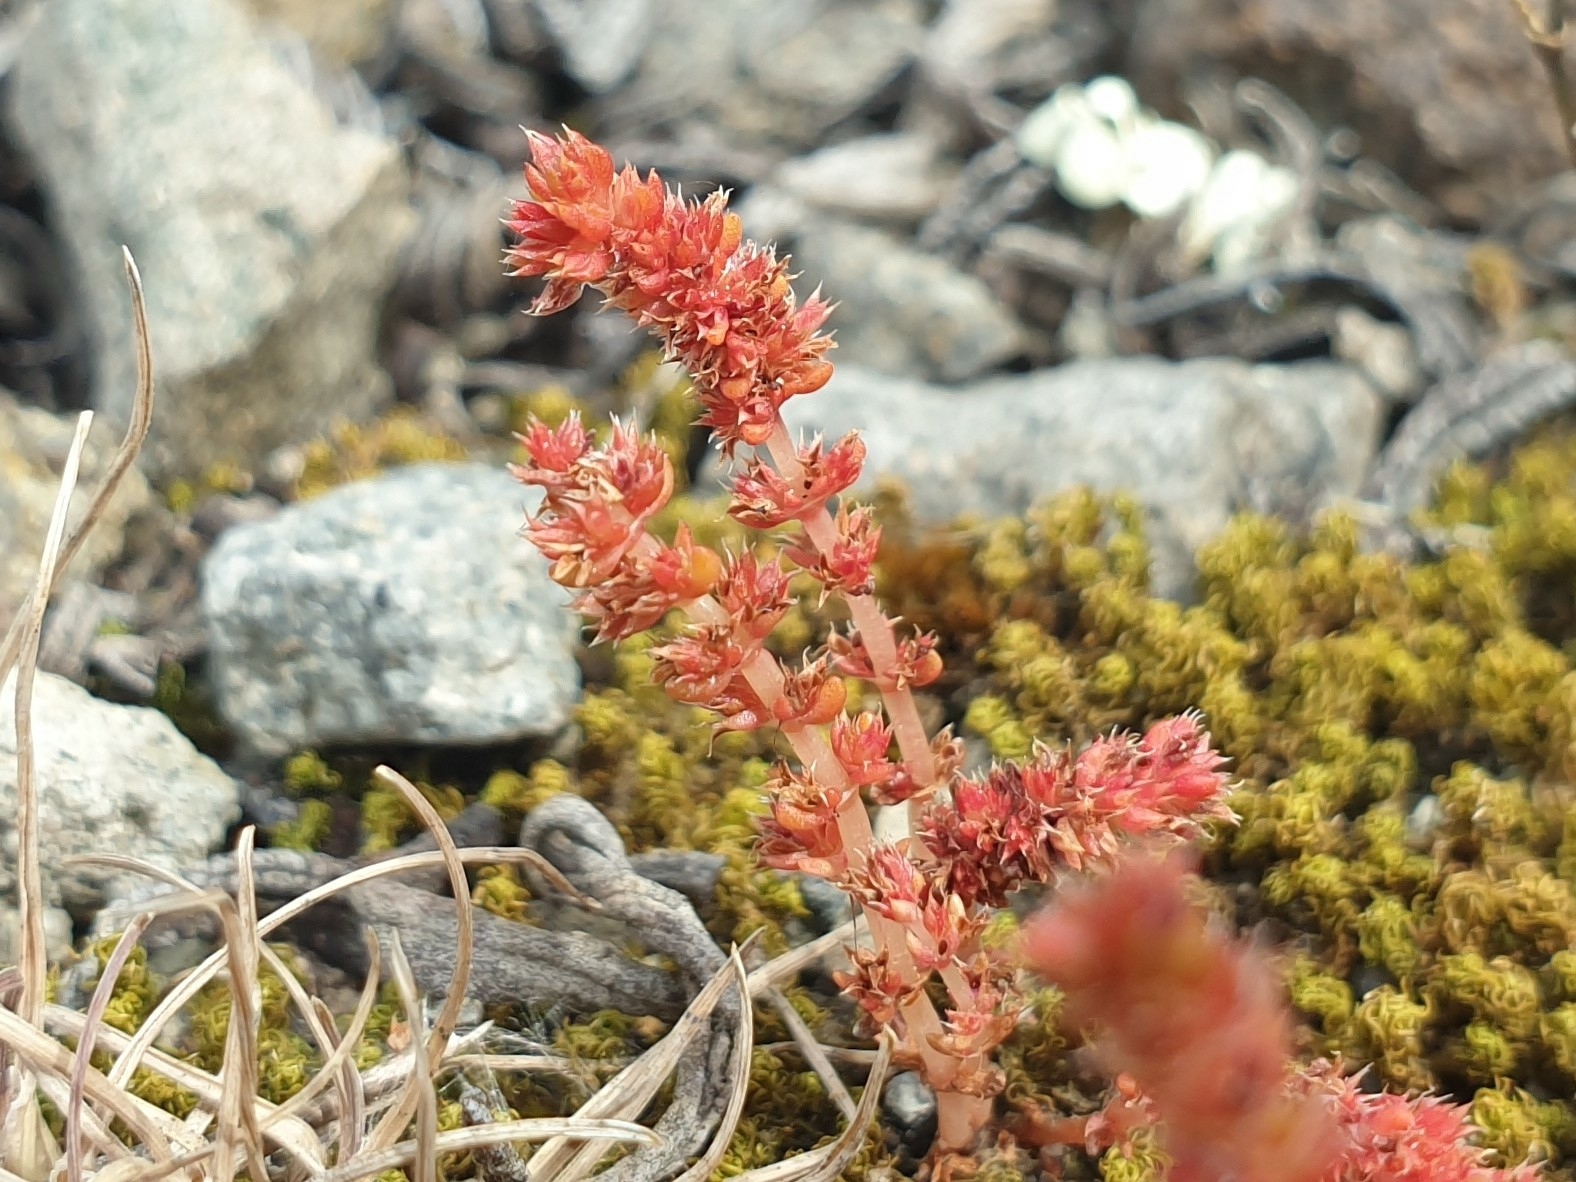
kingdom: Plantae
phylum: Tracheophyta
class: Magnoliopsida
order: Saxifragales
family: Crassulaceae
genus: Crassula
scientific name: Crassula tillaea
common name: Mossy stonecrop
